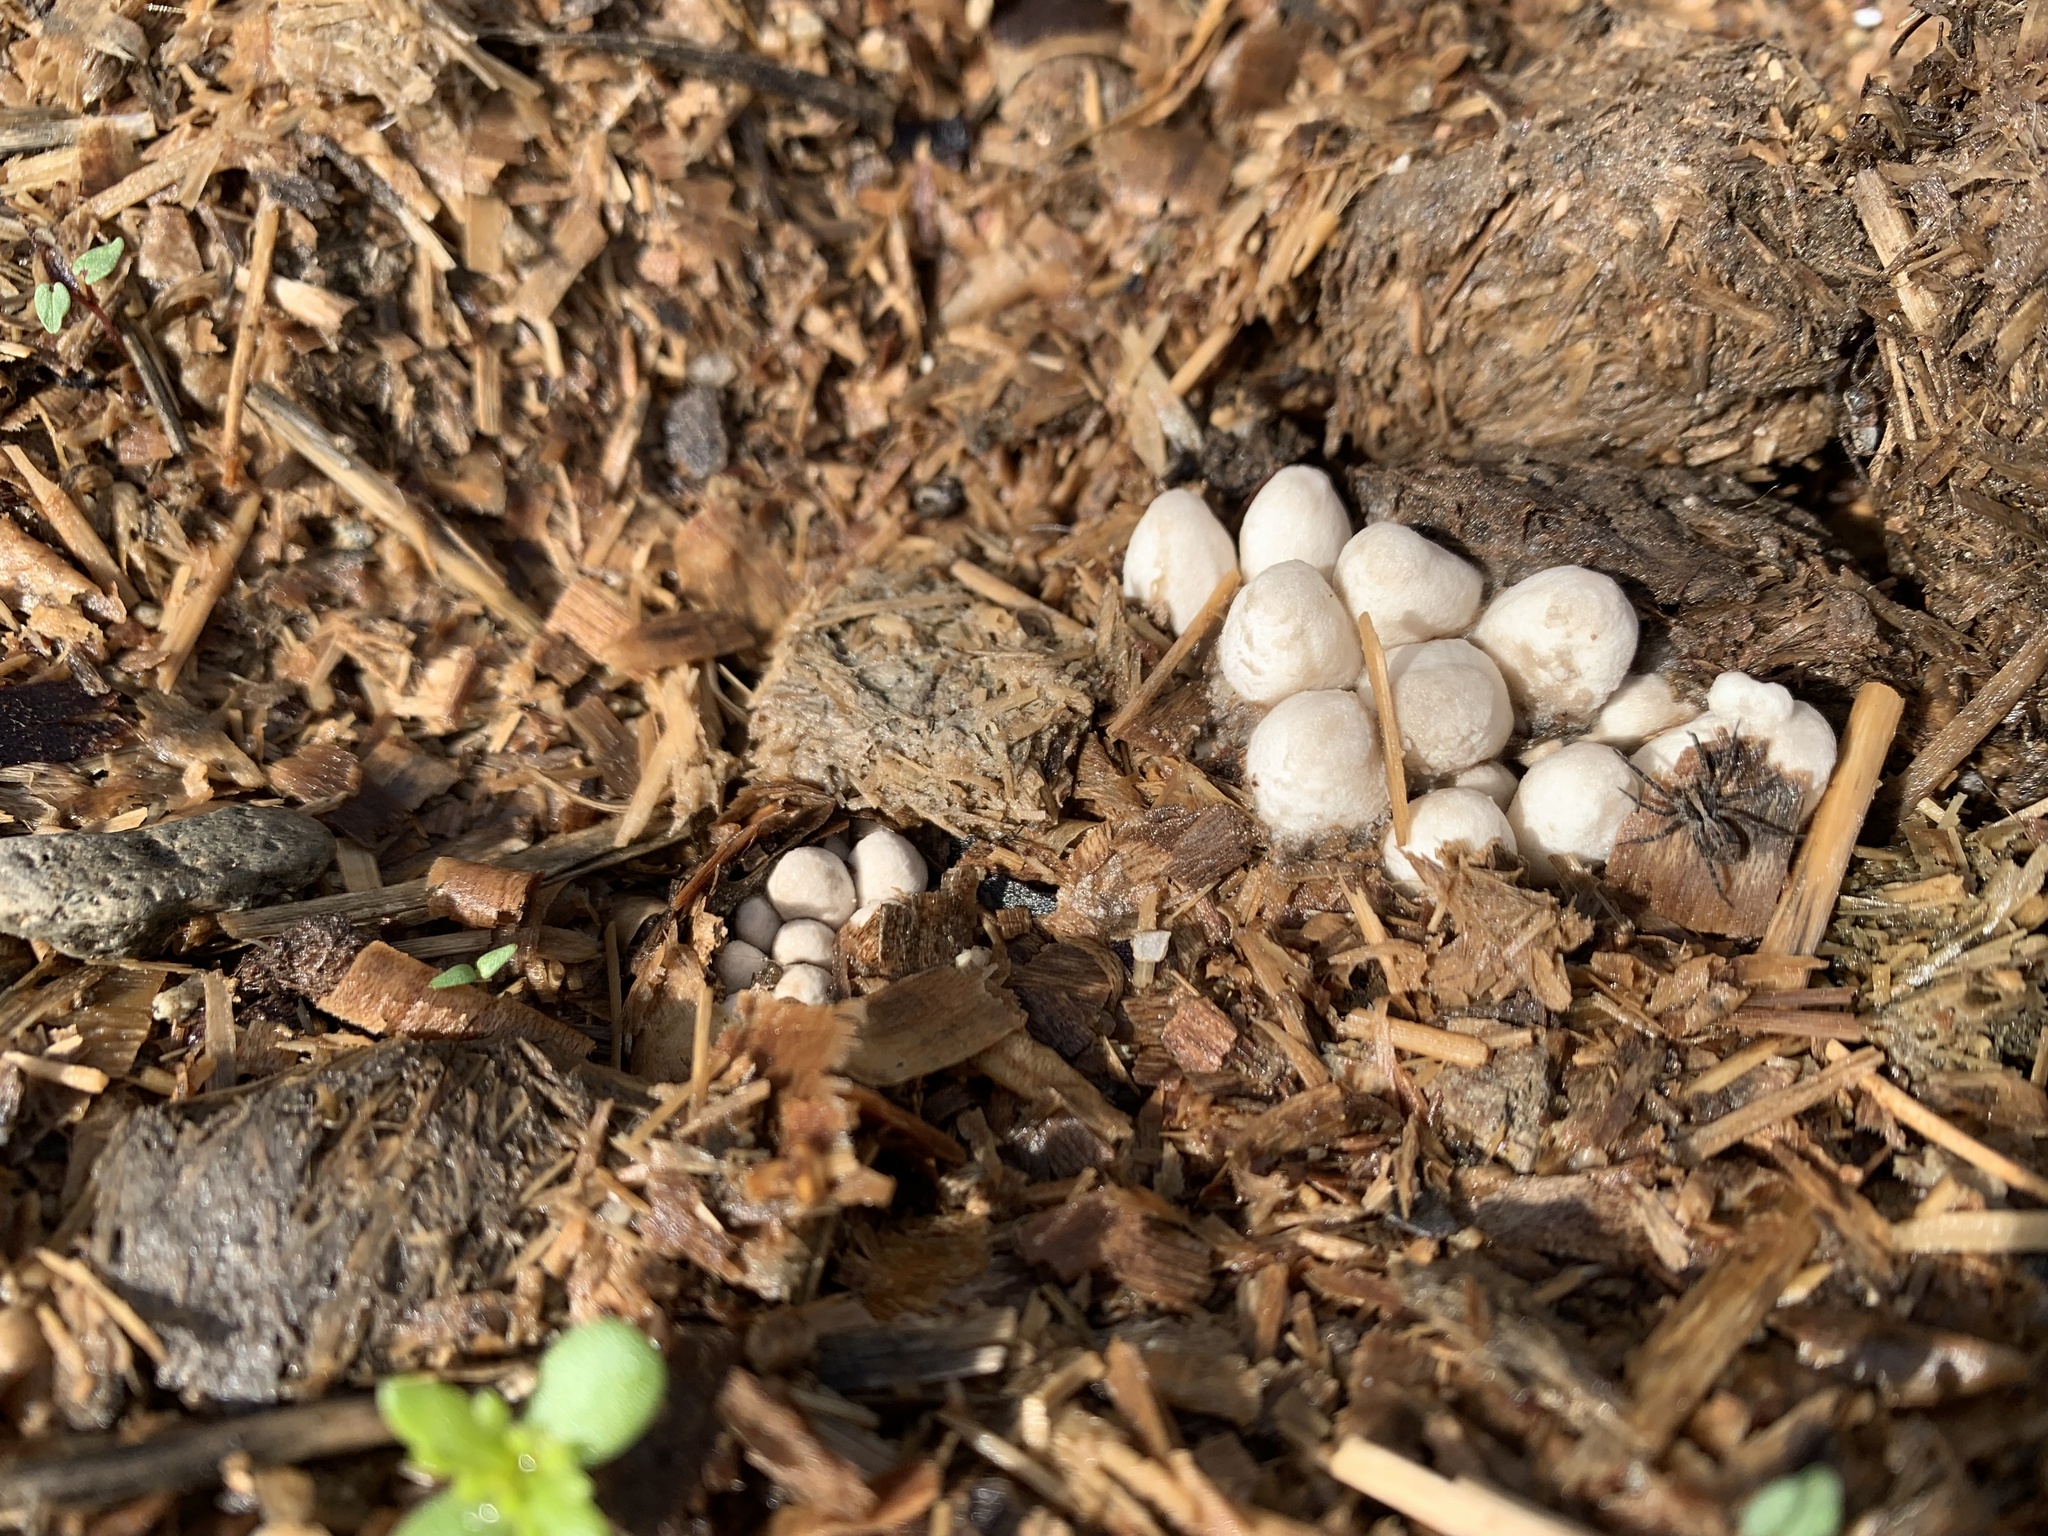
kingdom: Fungi
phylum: Basidiomycota
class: Agaricomycetes
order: Agaricales
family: Psathyrellaceae
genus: Coprinopsis
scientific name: Coprinopsis lagopus
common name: Hare'sfoot inkcap
